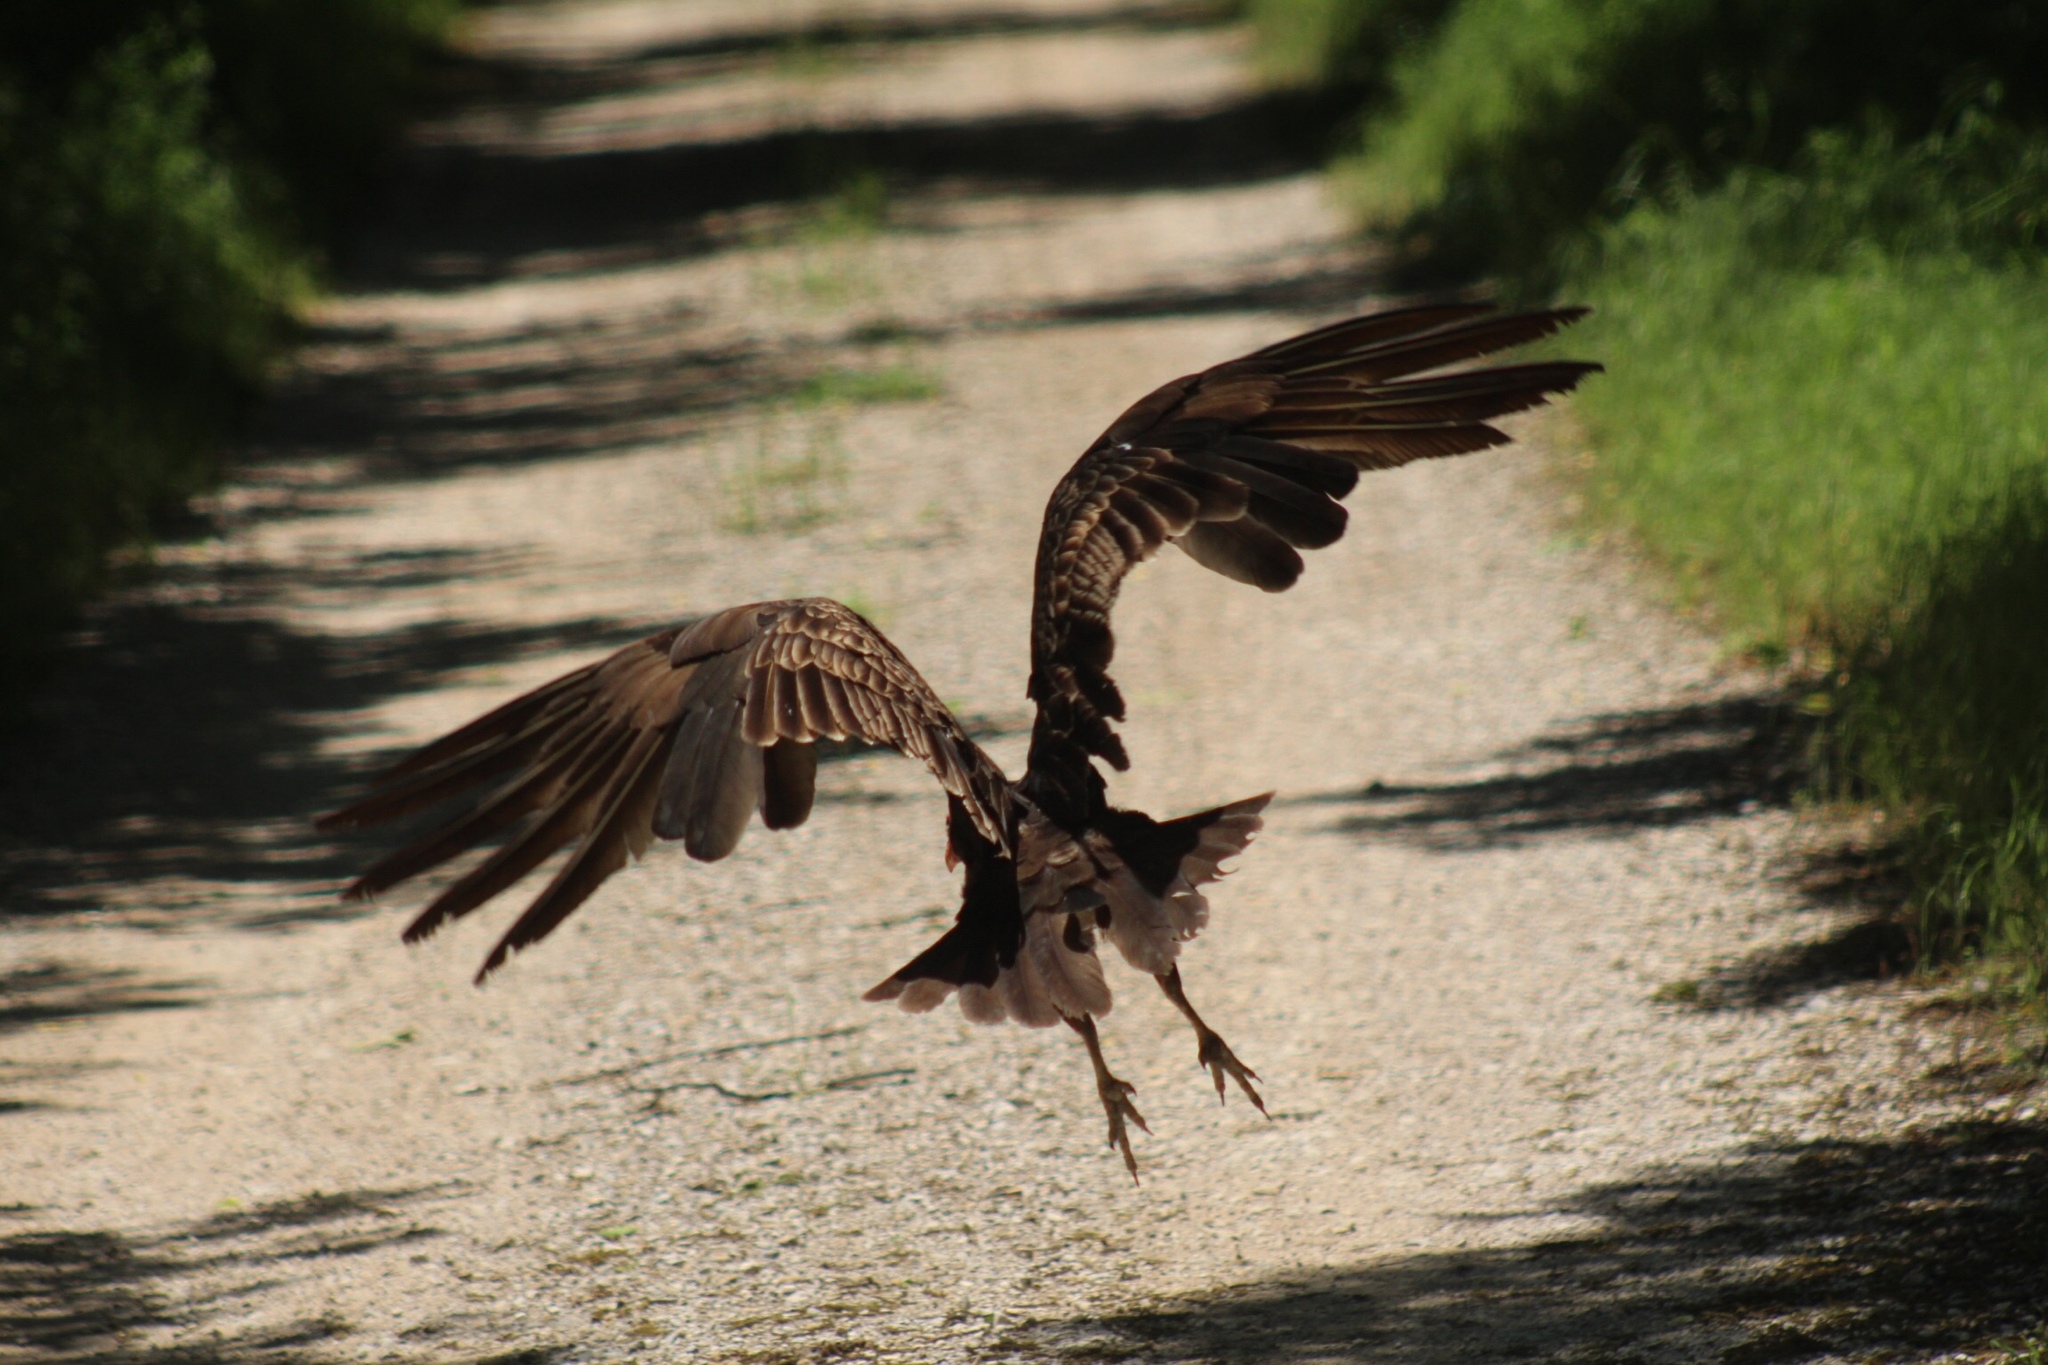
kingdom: Animalia
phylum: Chordata
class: Aves
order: Accipitriformes
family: Cathartidae
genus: Cathartes
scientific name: Cathartes aura
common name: Turkey vulture
